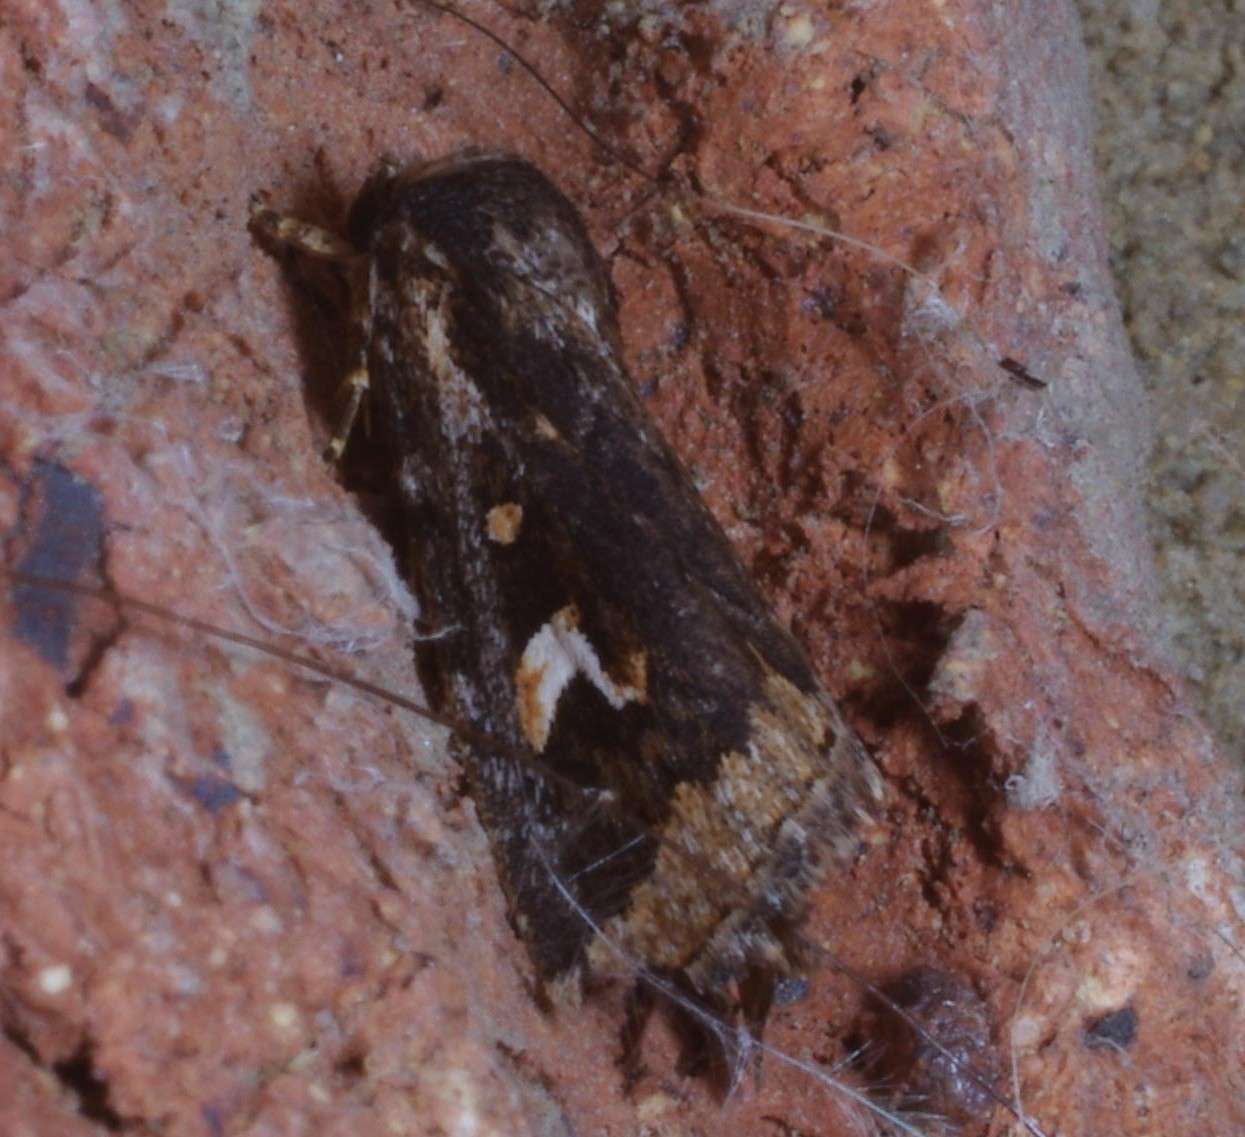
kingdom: Animalia
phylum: Arthropoda
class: Insecta
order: Lepidoptera
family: Noctuidae
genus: Proteuxoa
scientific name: Proteuxoa heliosema
